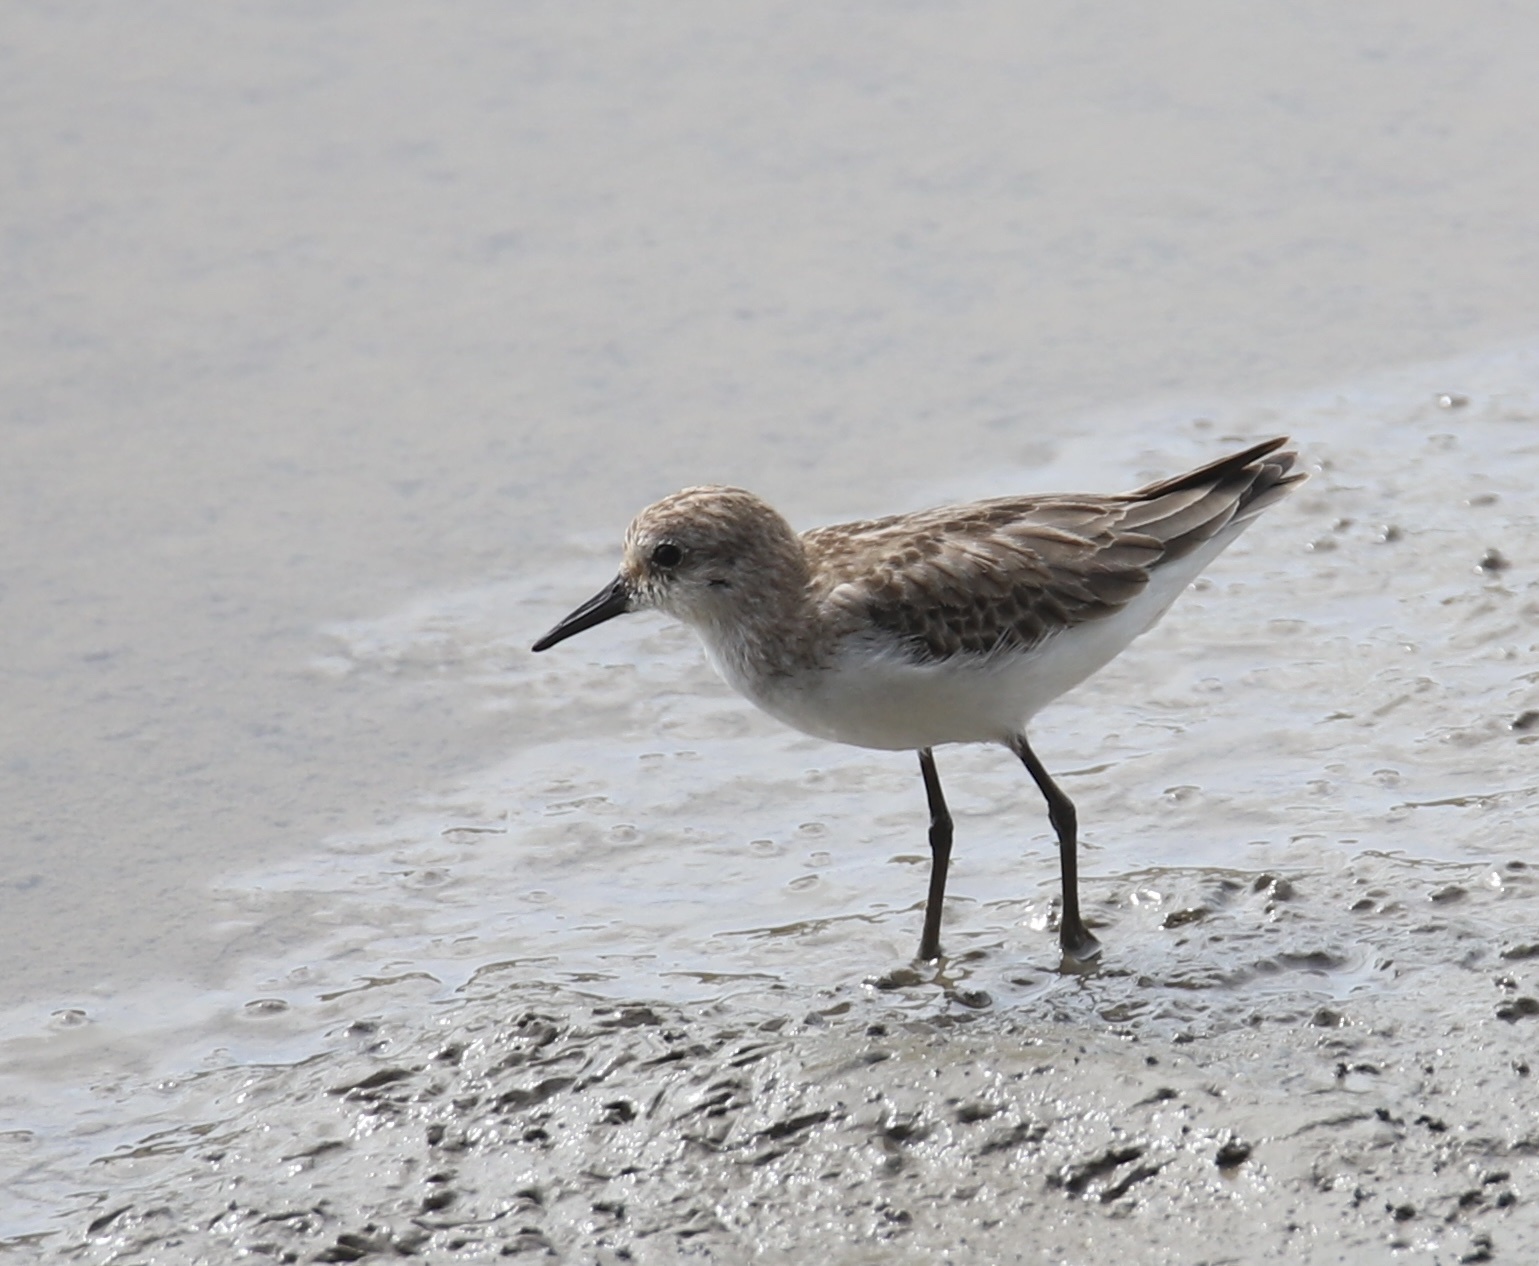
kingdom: Animalia
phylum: Chordata
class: Aves
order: Charadriiformes
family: Scolopacidae
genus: Calidris
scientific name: Calidris pusilla
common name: Semipalmated sandpiper
